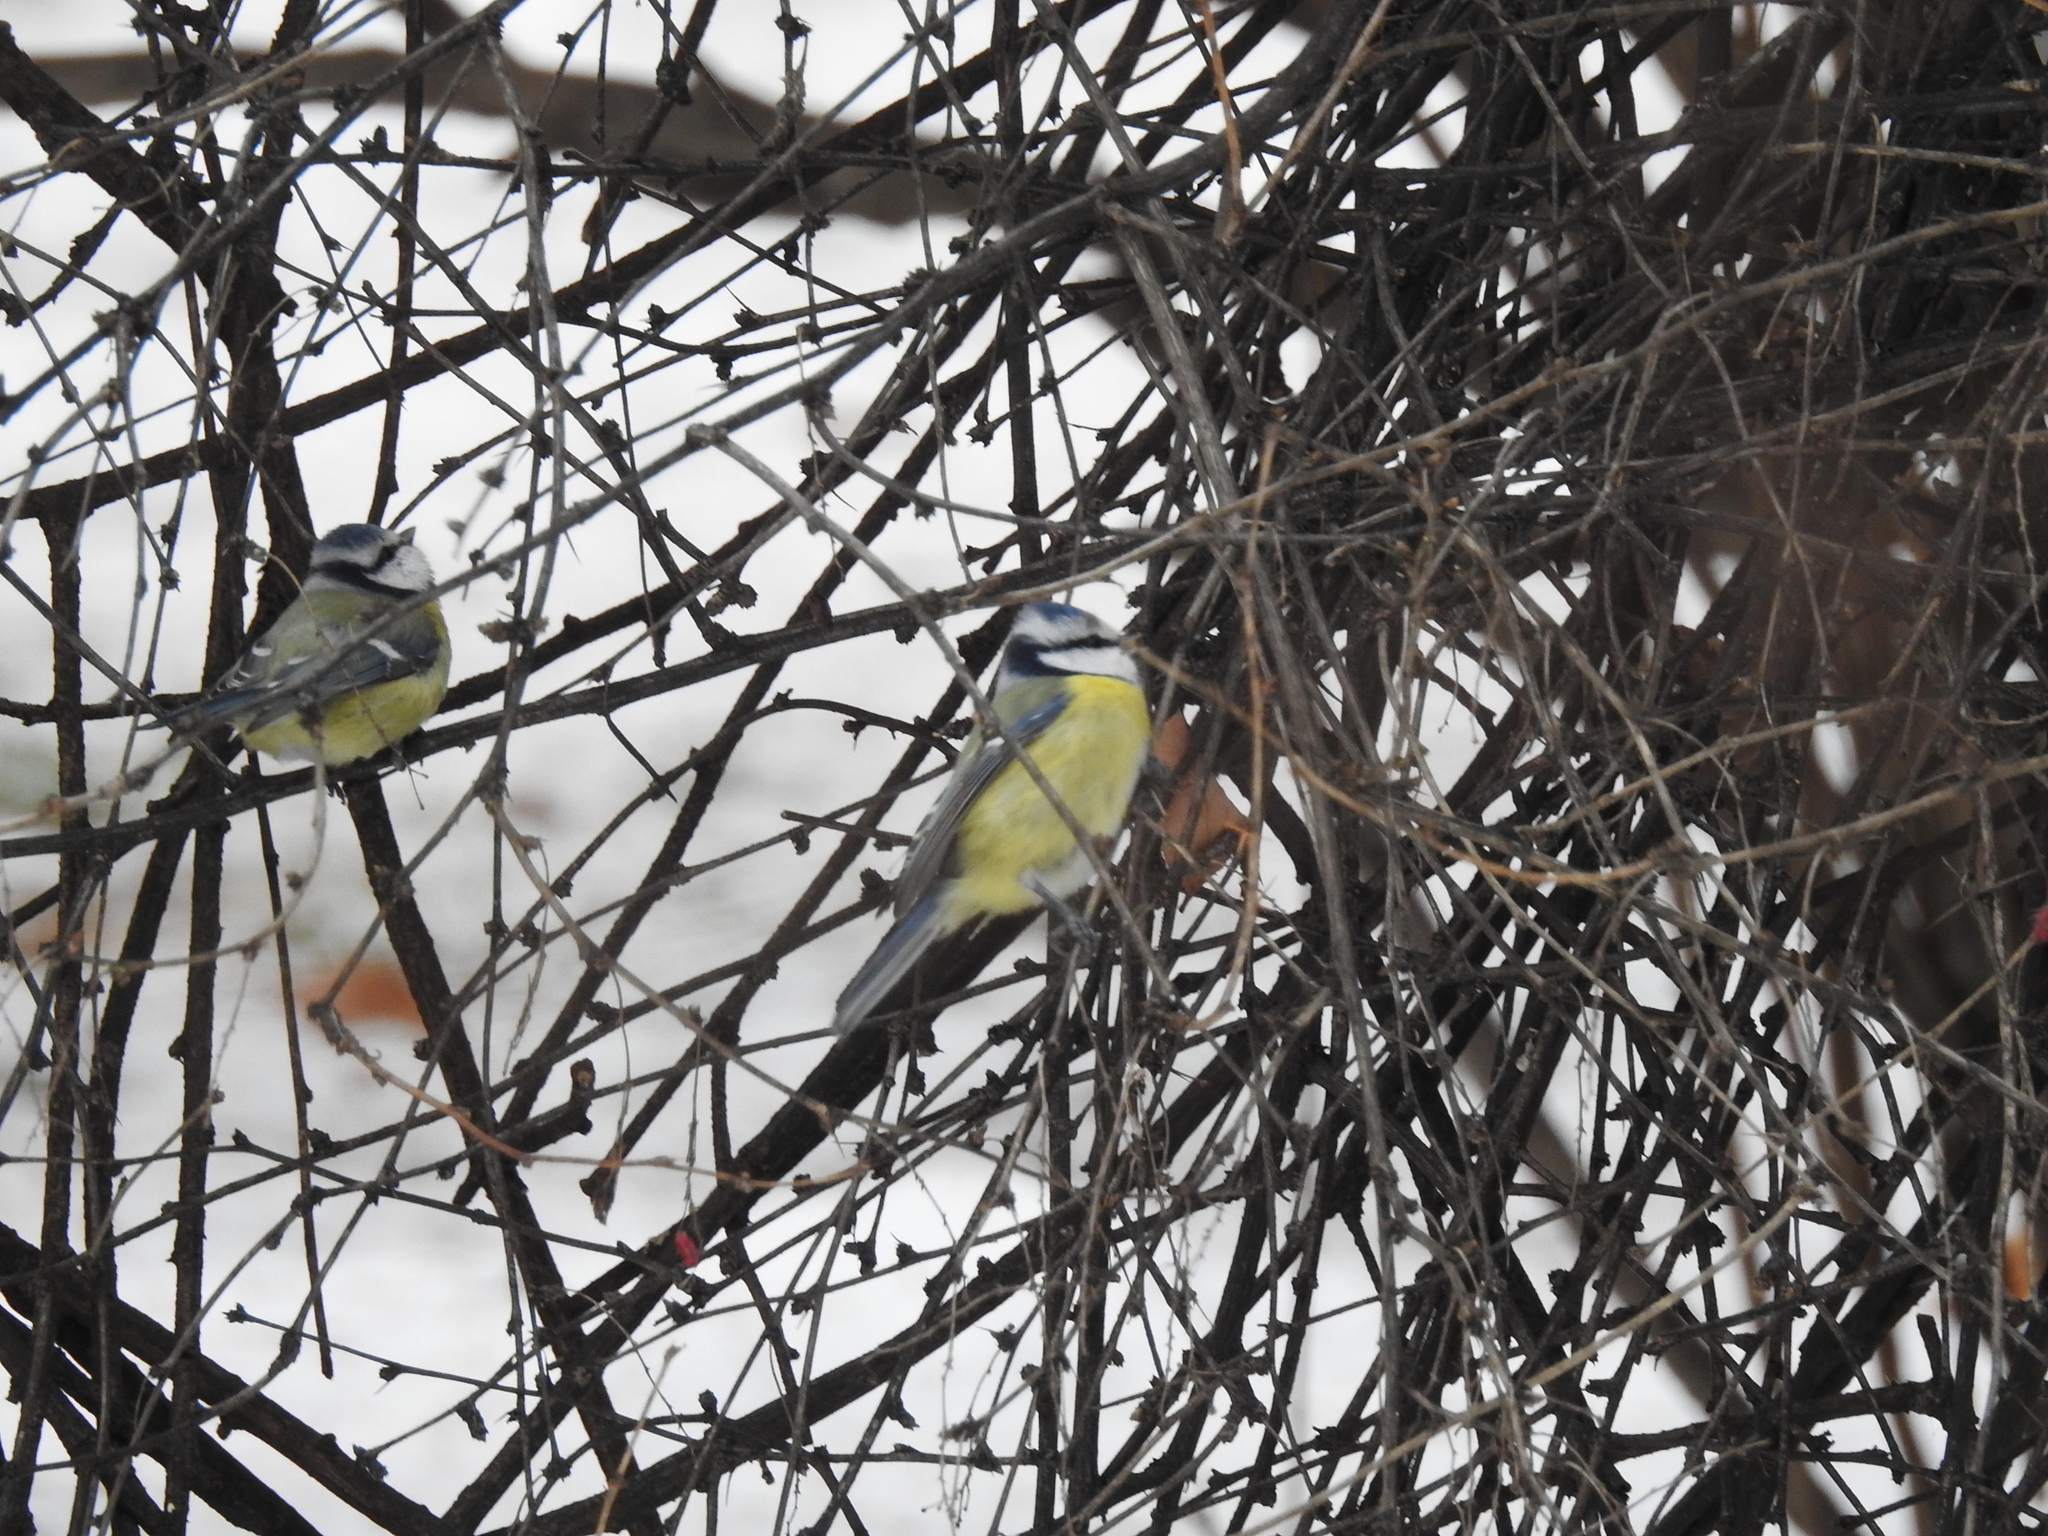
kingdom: Animalia
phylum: Chordata
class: Aves
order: Passeriformes
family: Paridae
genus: Cyanistes
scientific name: Cyanistes caeruleus
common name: Eurasian blue tit
